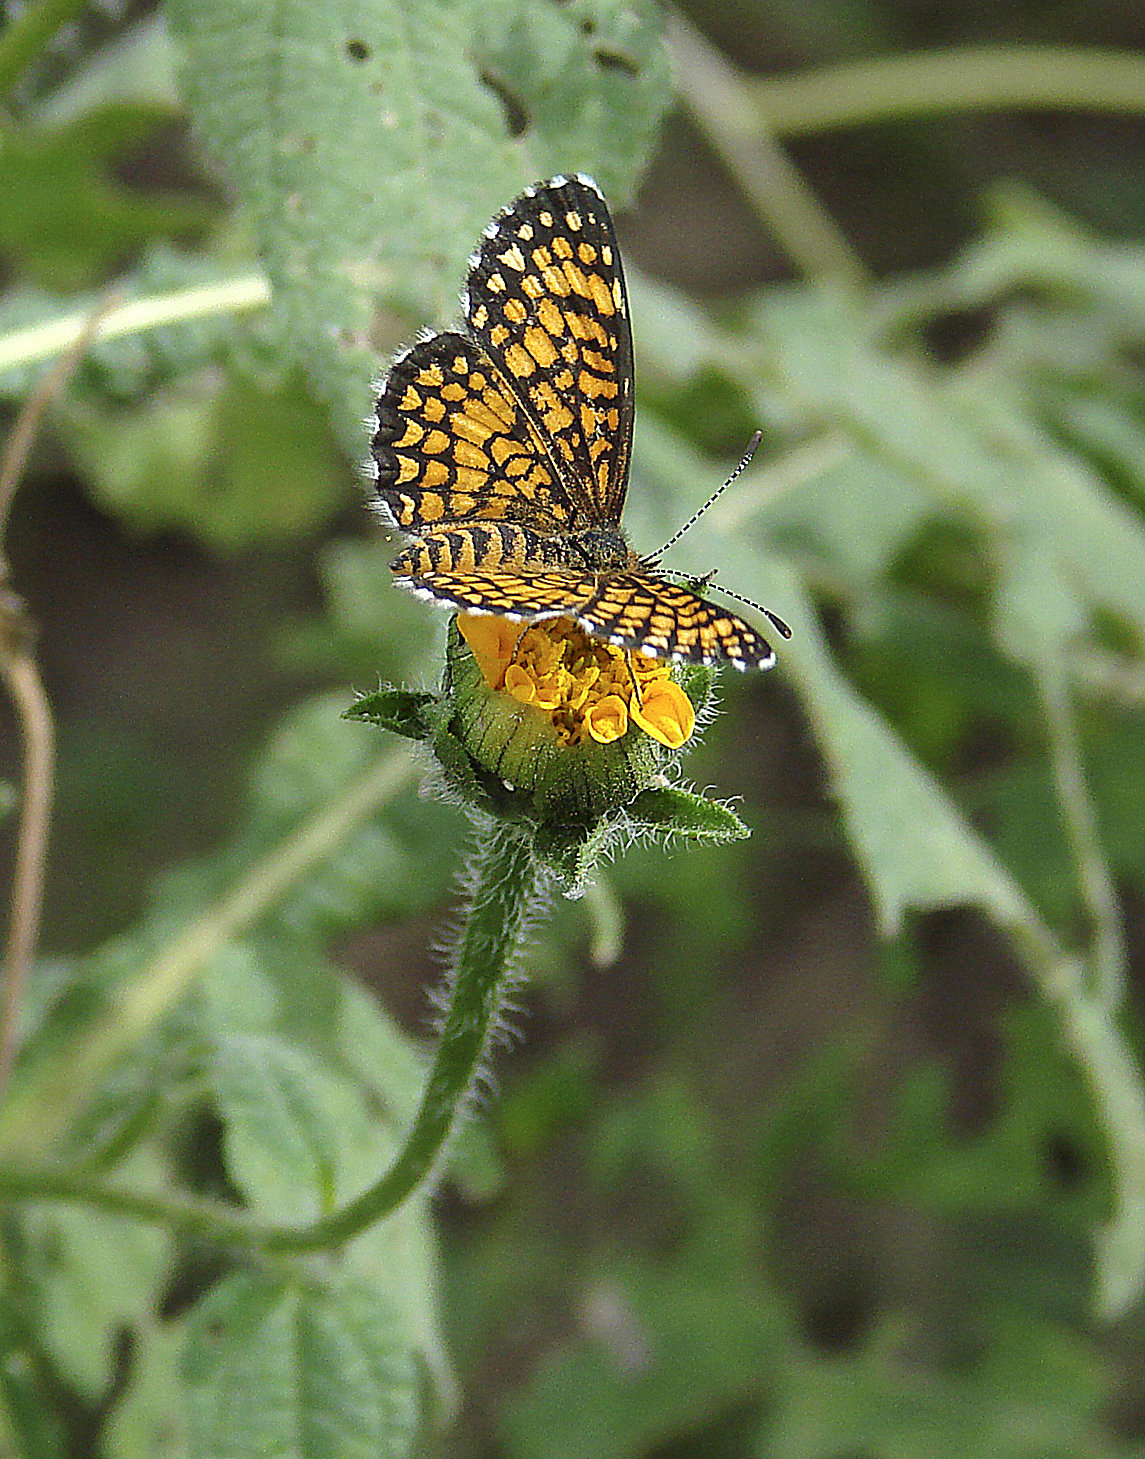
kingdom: Animalia
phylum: Arthropoda
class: Insecta
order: Lepidoptera
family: Nymphalidae
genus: Texola
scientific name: Texola
